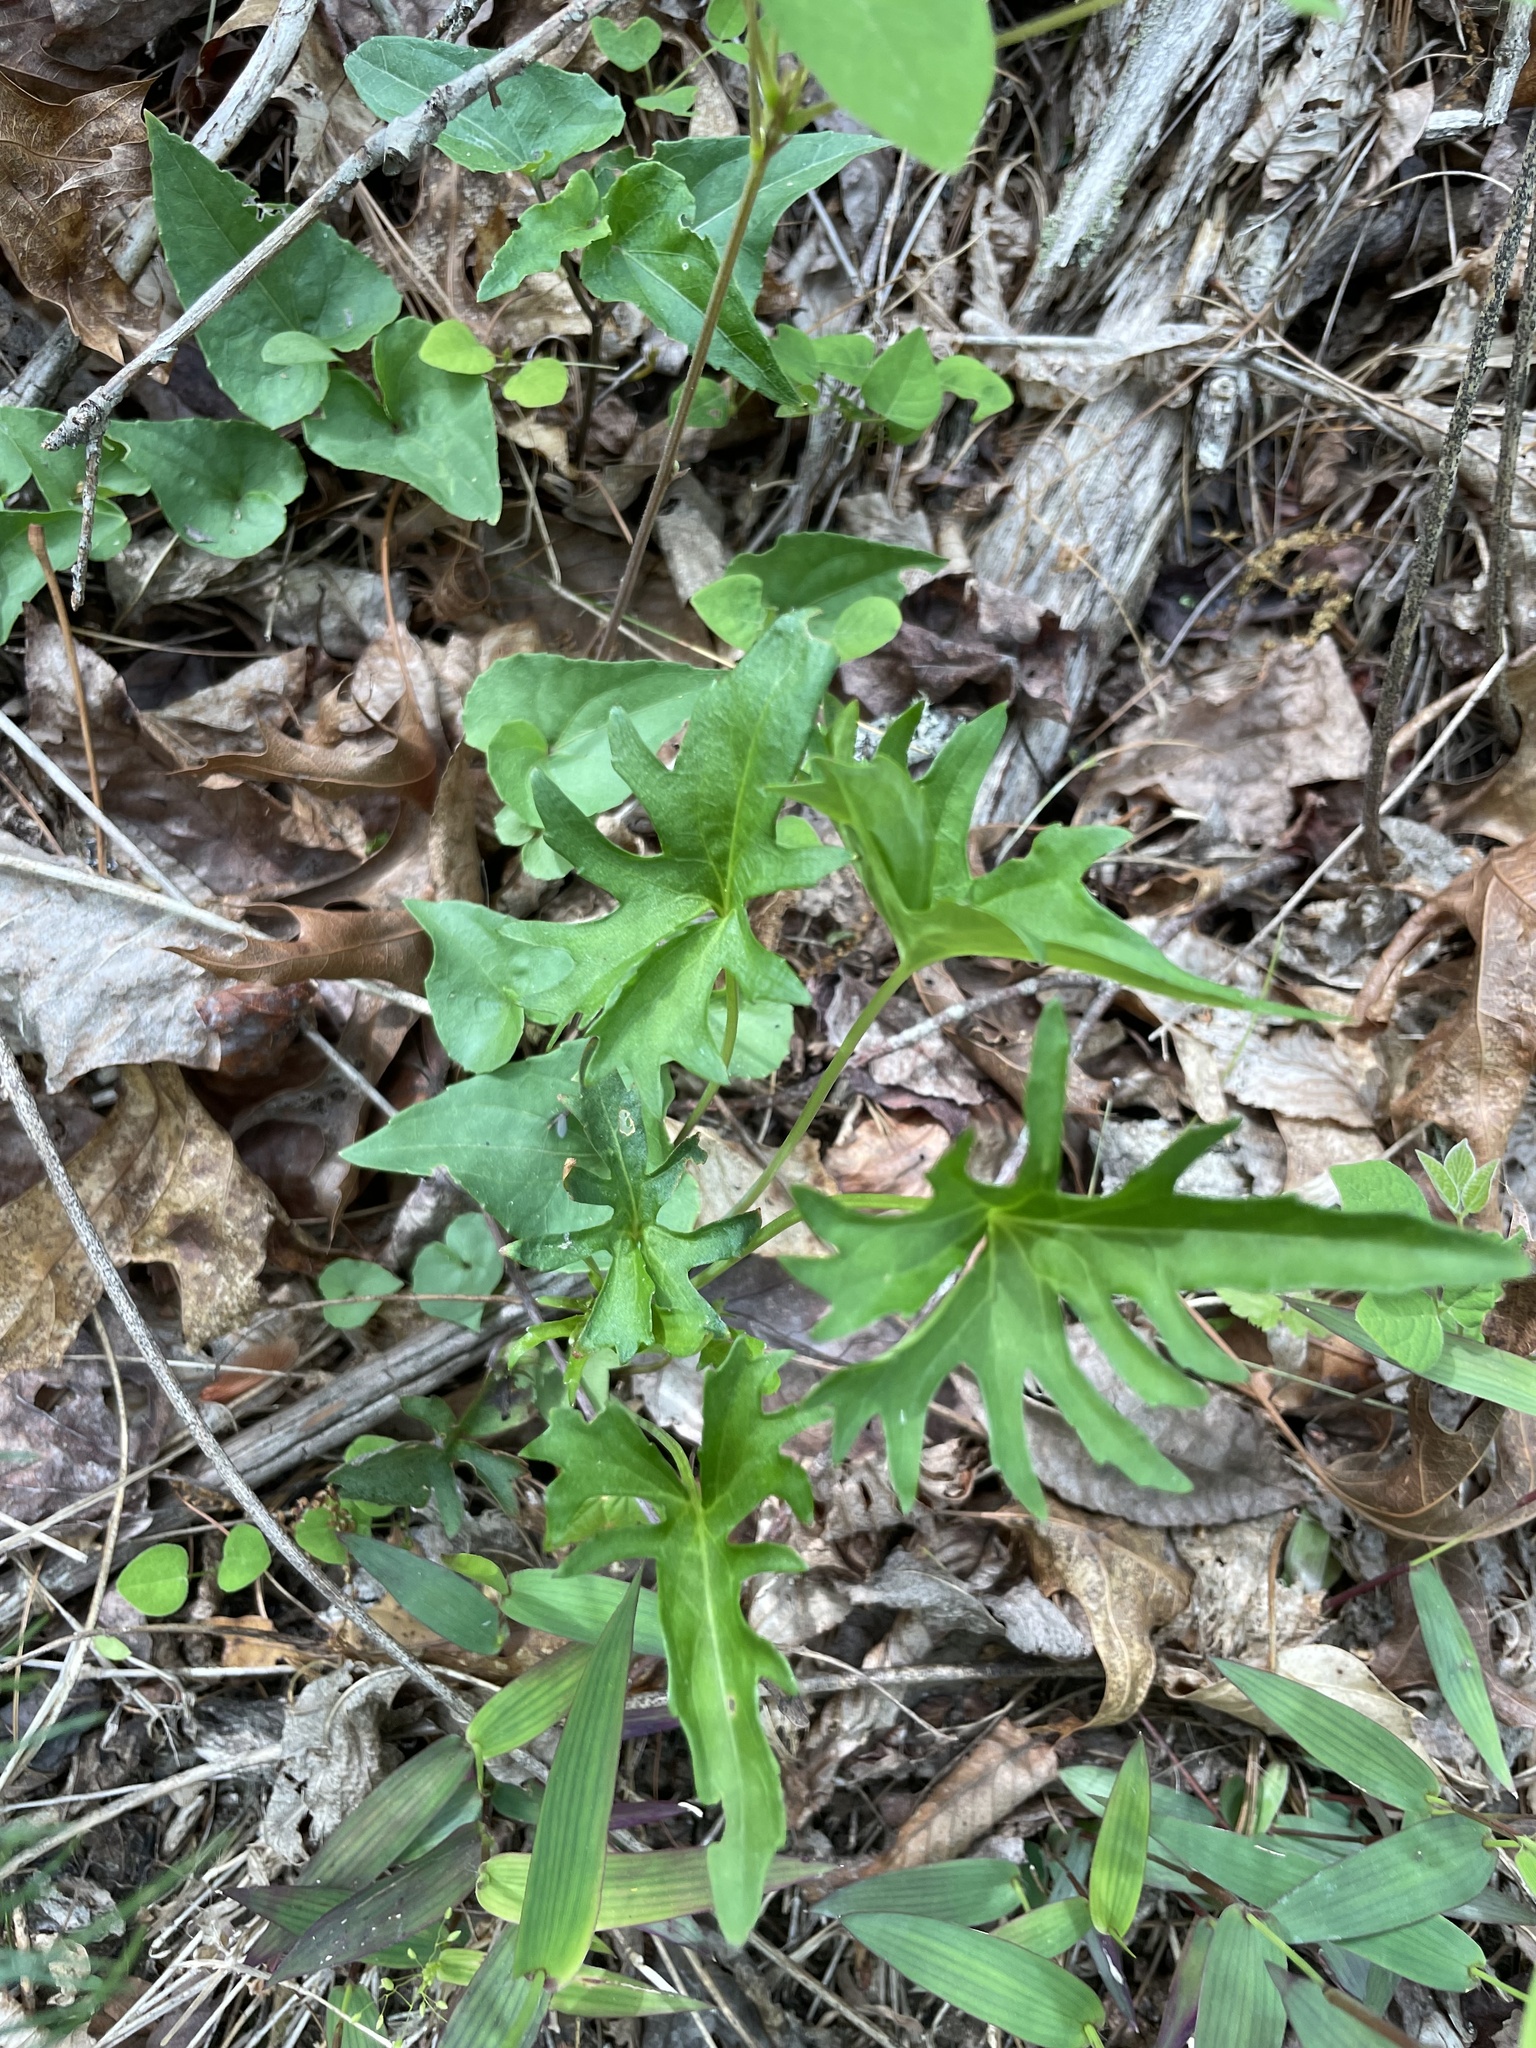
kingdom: Plantae
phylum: Tracheophyta
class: Magnoliopsida
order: Malpighiales
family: Violaceae
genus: Viola
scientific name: Viola subsinuata
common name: Wood violet
